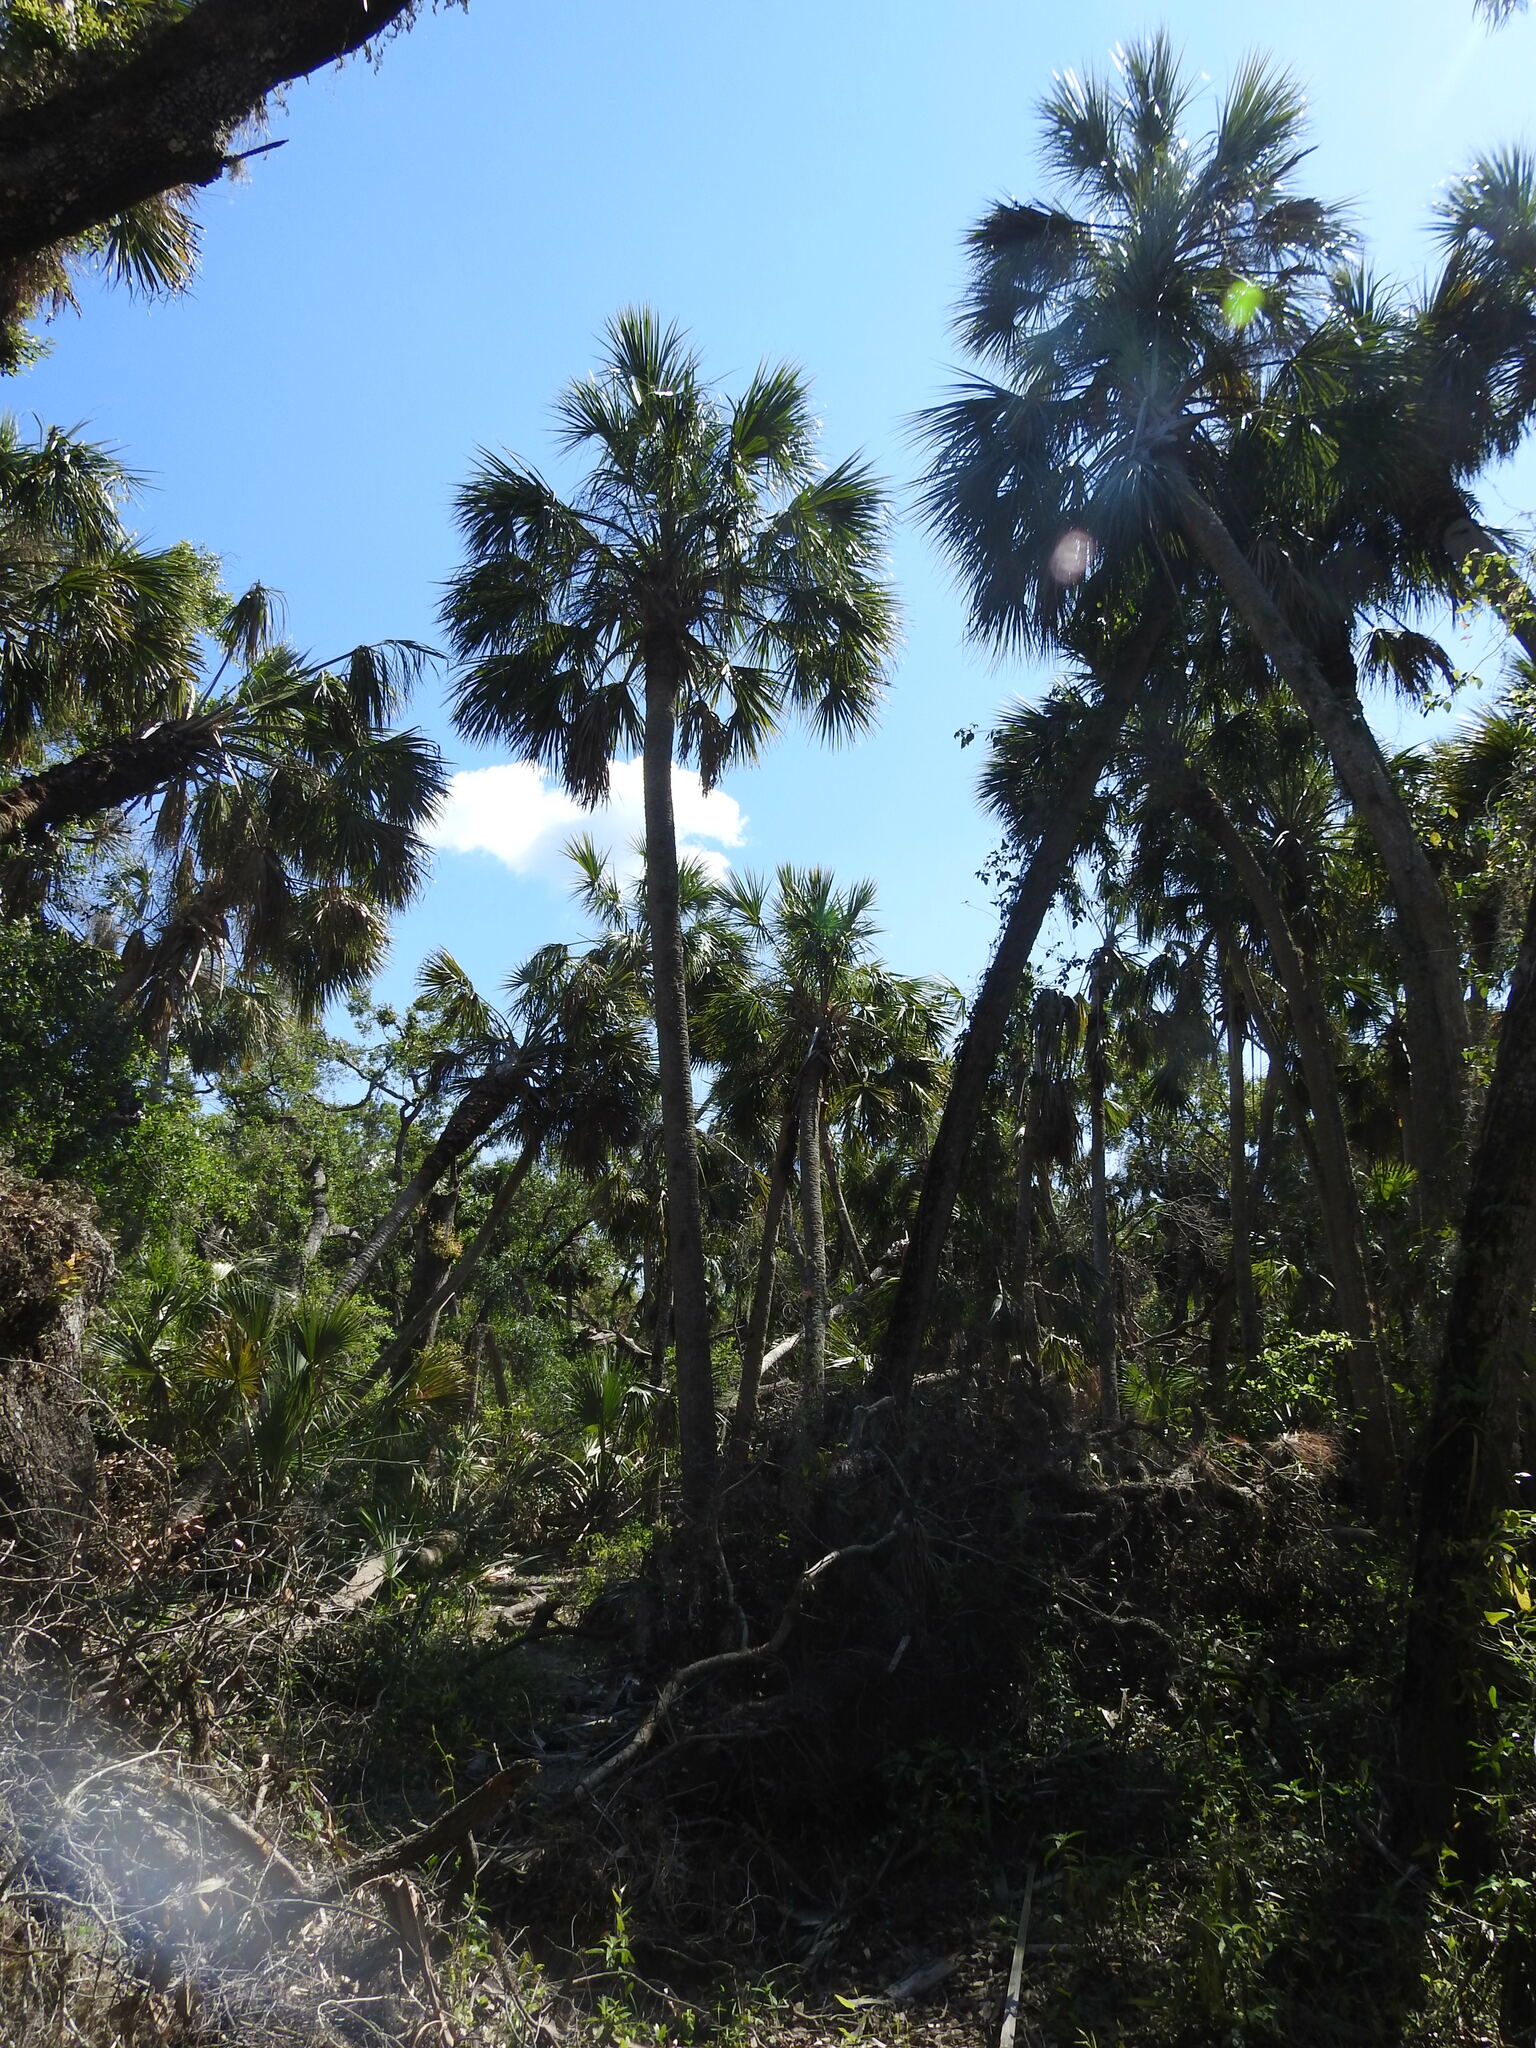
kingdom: Plantae
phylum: Tracheophyta
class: Liliopsida
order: Arecales
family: Arecaceae
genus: Sabal
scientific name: Sabal palmetto
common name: Blue palmetto
